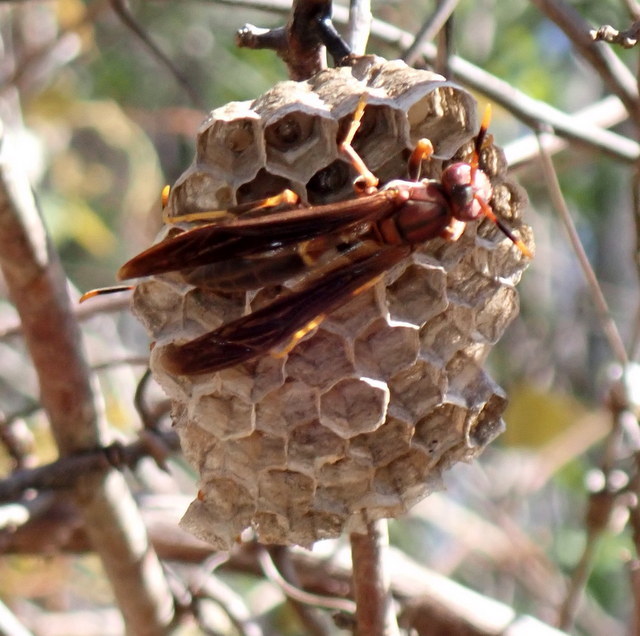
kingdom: Animalia
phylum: Arthropoda
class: Insecta
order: Hymenoptera
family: Eumenidae
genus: Polistes
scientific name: Polistes annularis
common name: Ringed paper wasp
